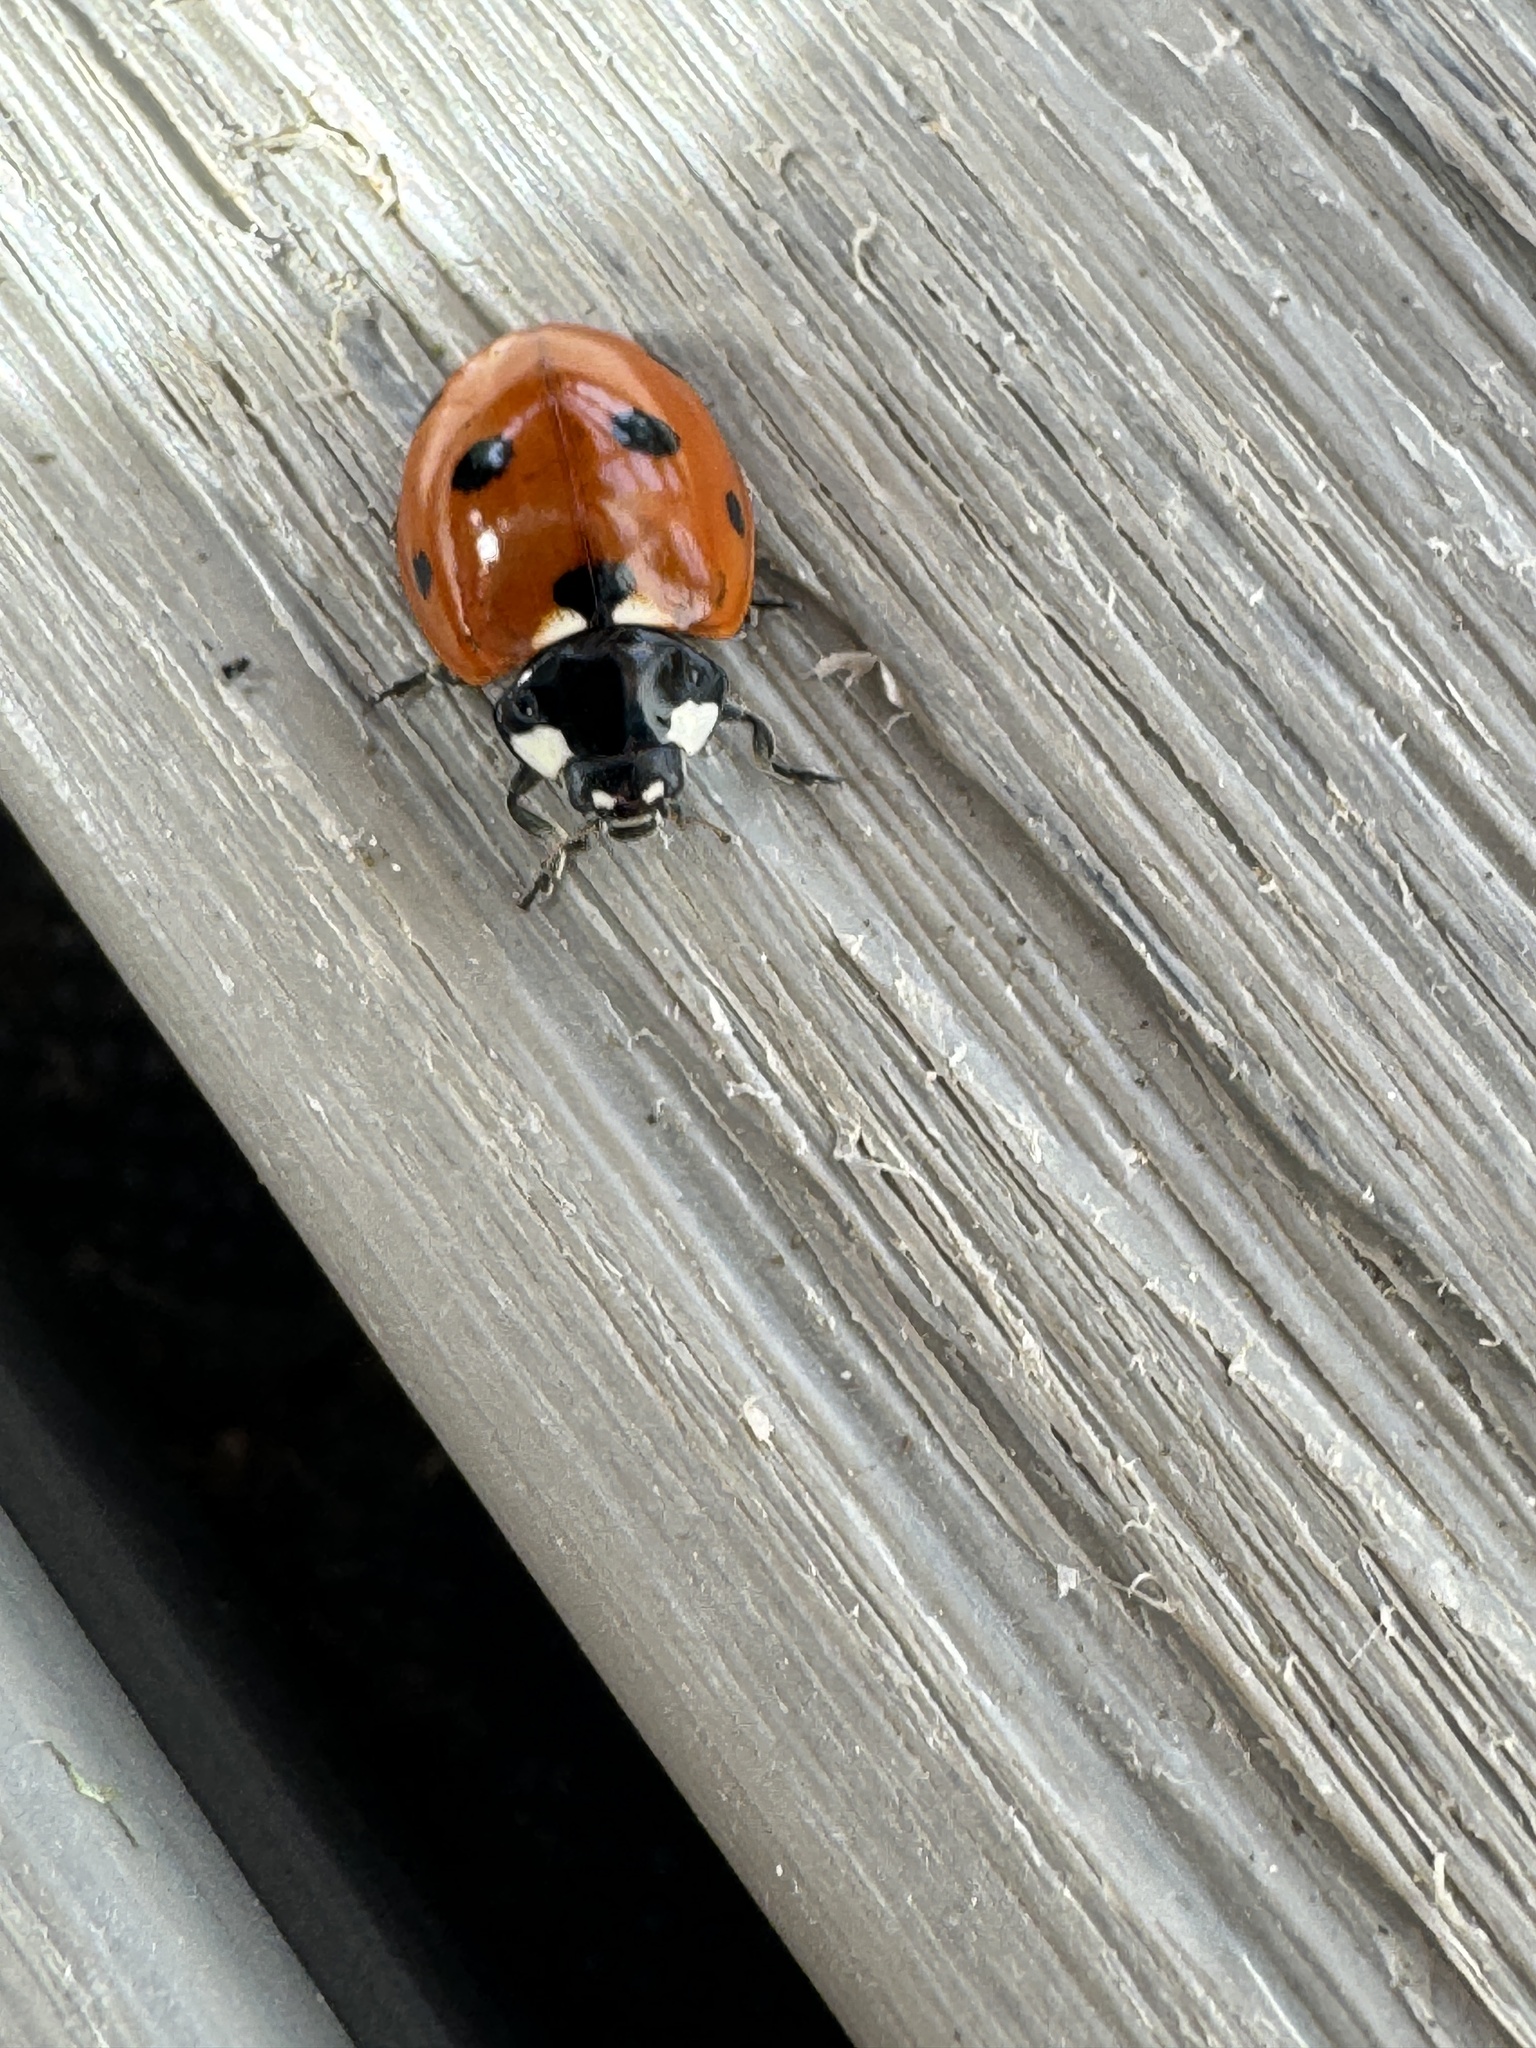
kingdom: Animalia
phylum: Arthropoda
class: Insecta
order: Coleoptera
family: Coccinellidae
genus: Coccinella
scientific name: Coccinella septempunctata
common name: Sevenspotted lady beetle
